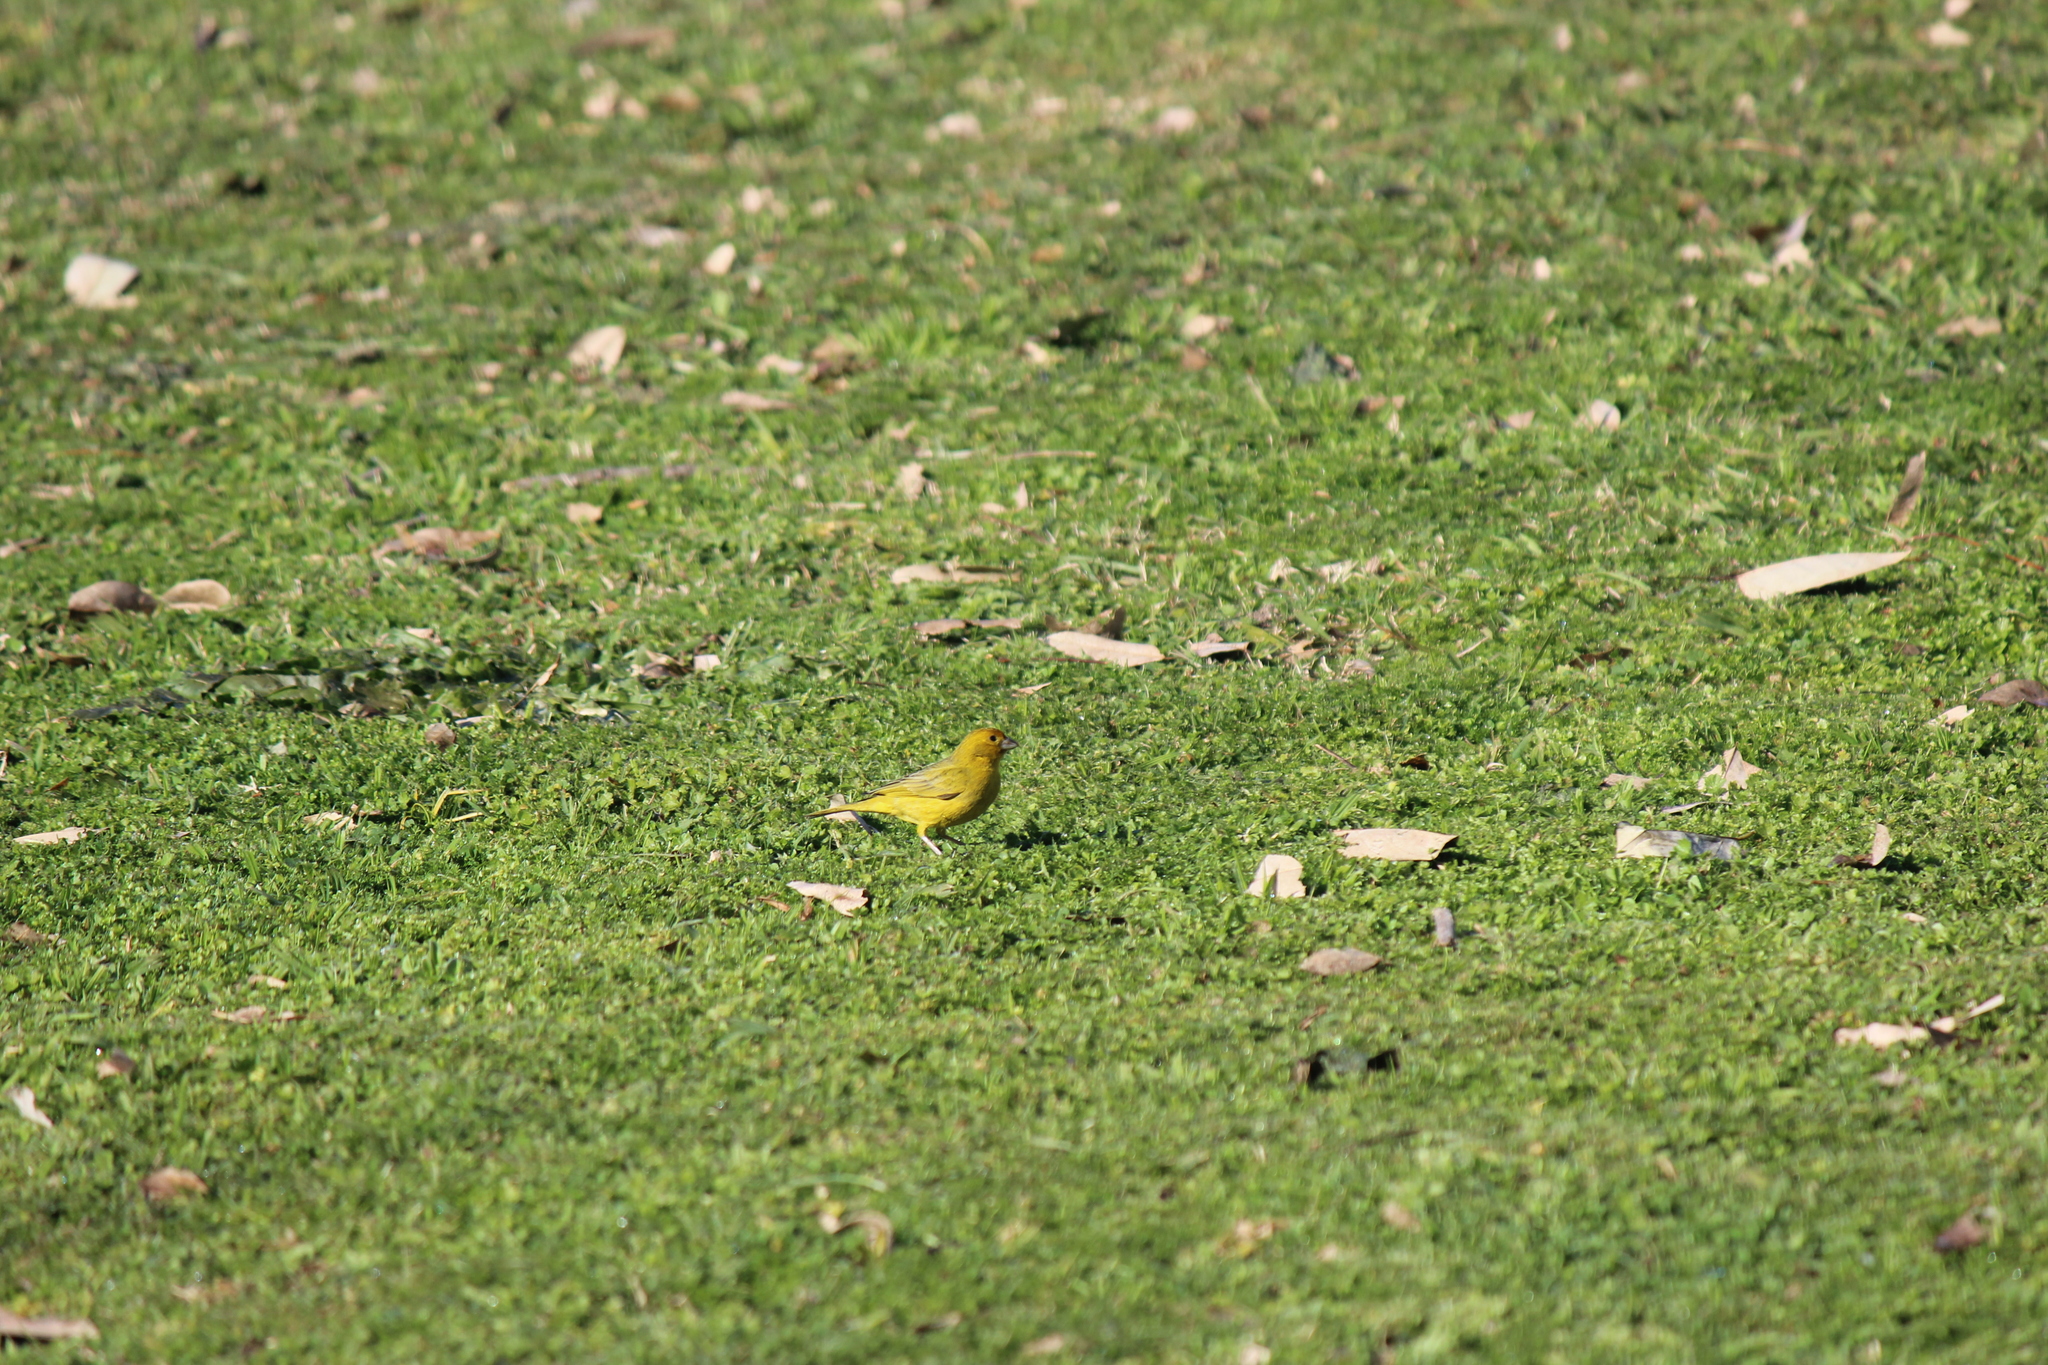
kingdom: Animalia
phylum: Chordata
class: Aves
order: Passeriformes
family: Thraupidae
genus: Sicalis
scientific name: Sicalis flaveola
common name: Saffron finch
